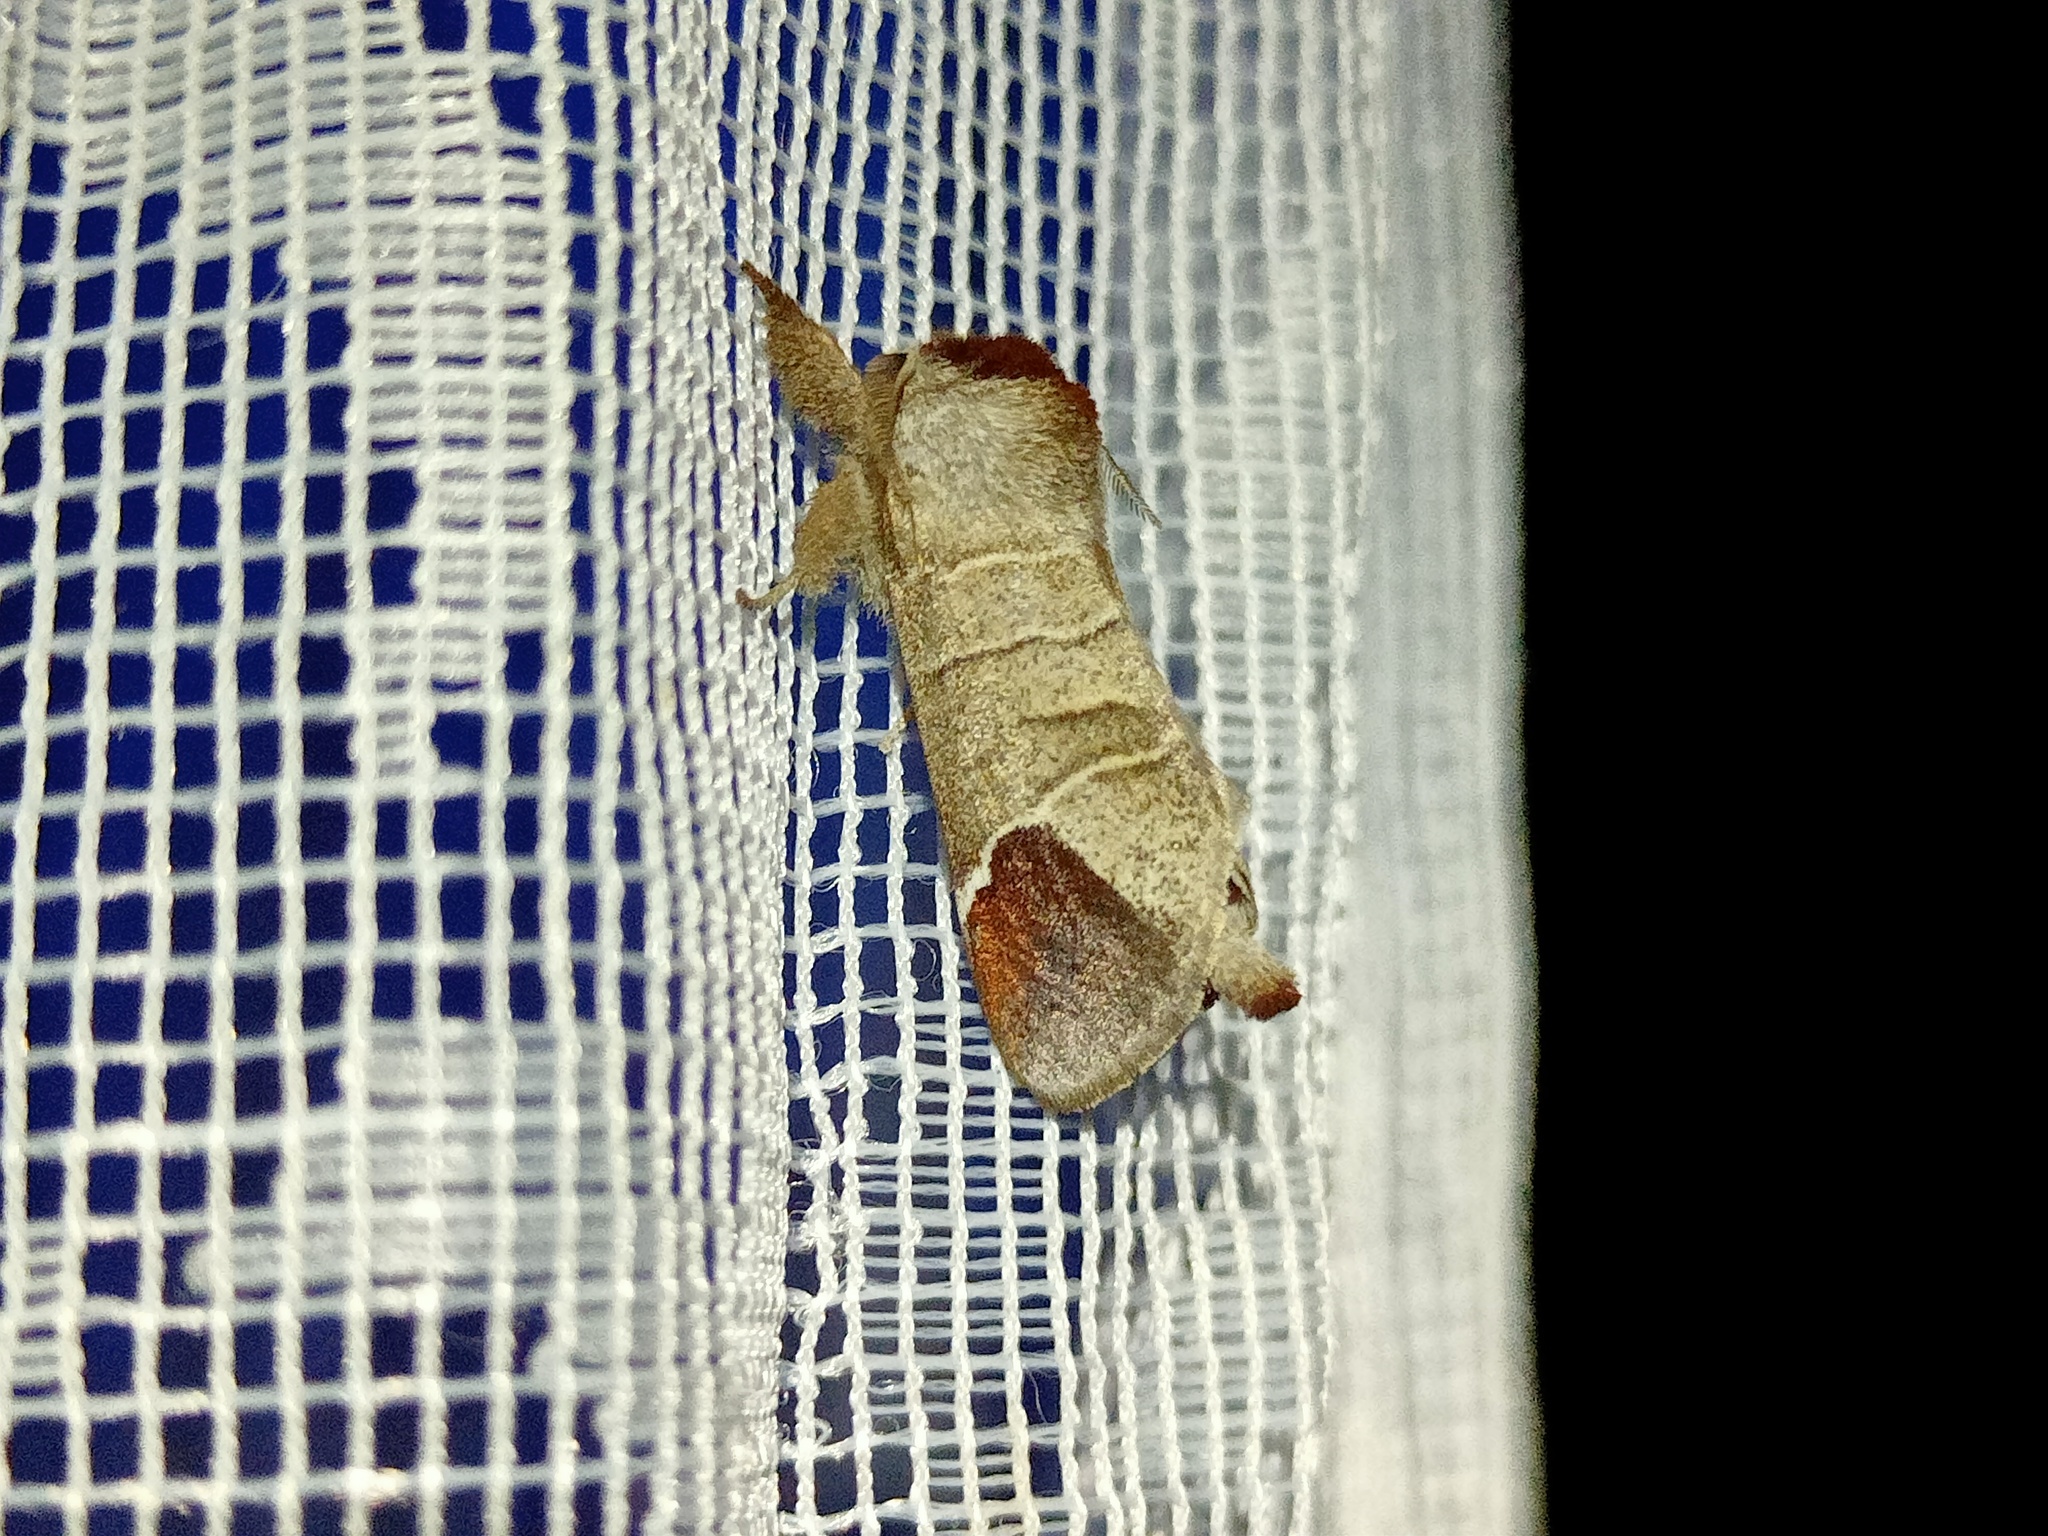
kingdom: Animalia
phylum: Arthropoda
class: Insecta
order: Lepidoptera
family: Notodontidae
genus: Clostera
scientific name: Clostera curtula
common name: Chocolate-tip
